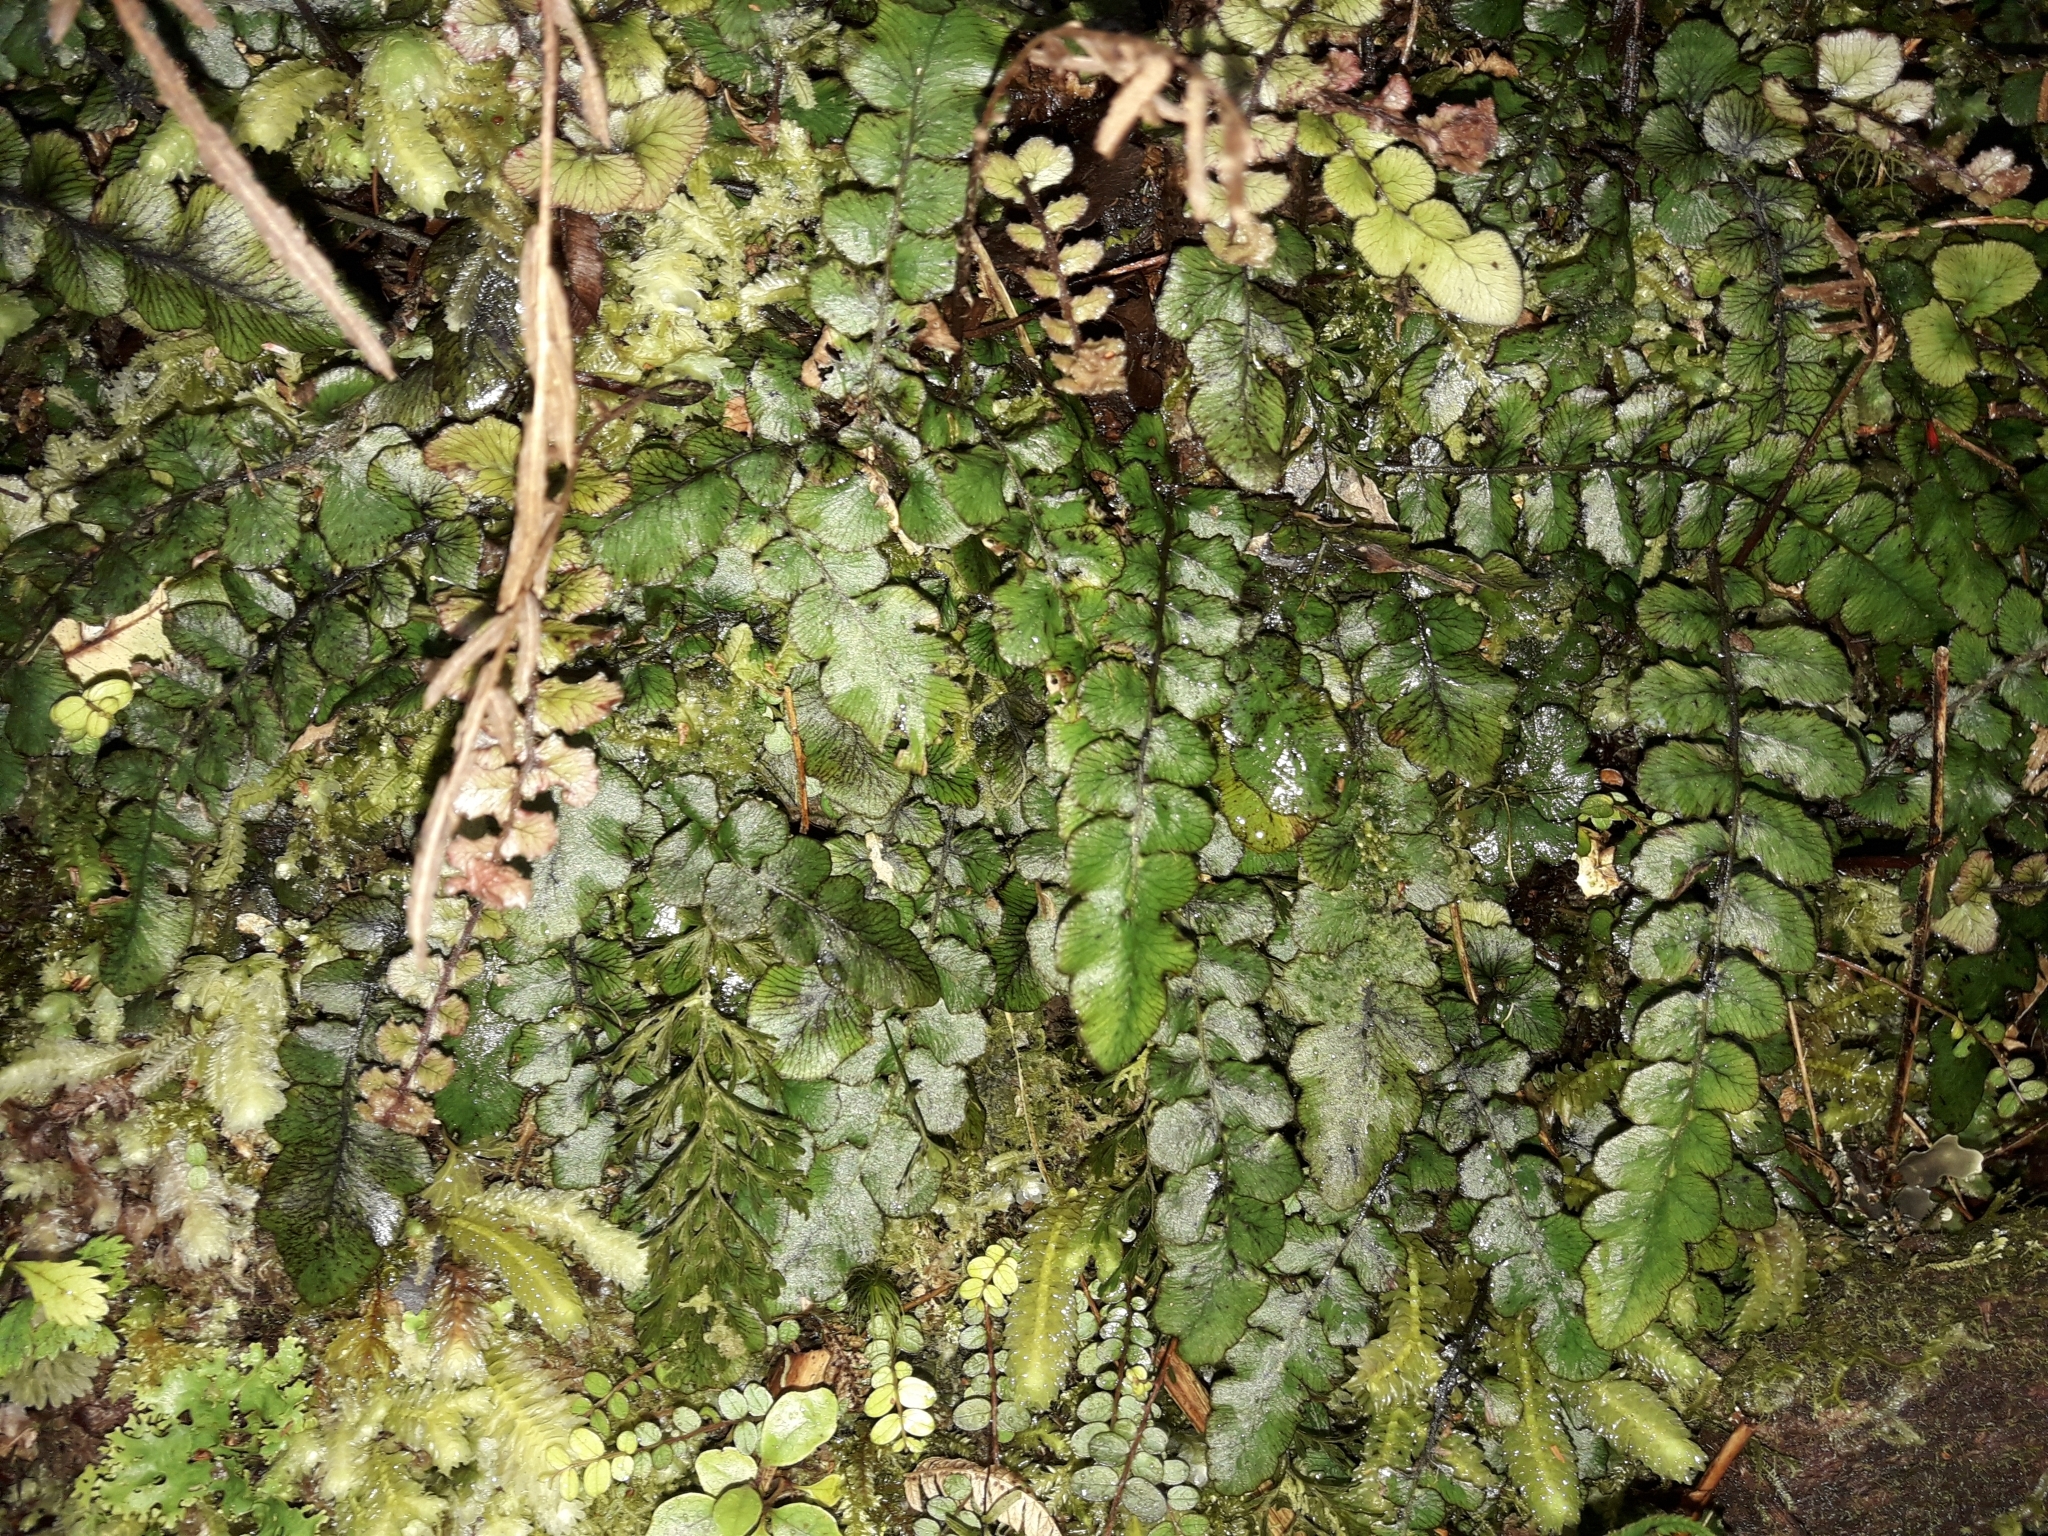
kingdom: Plantae
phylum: Tracheophyta
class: Polypodiopsida
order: Polypodiales
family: Blechnaceae
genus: Cranfillia
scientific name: Cranfillia nigra
